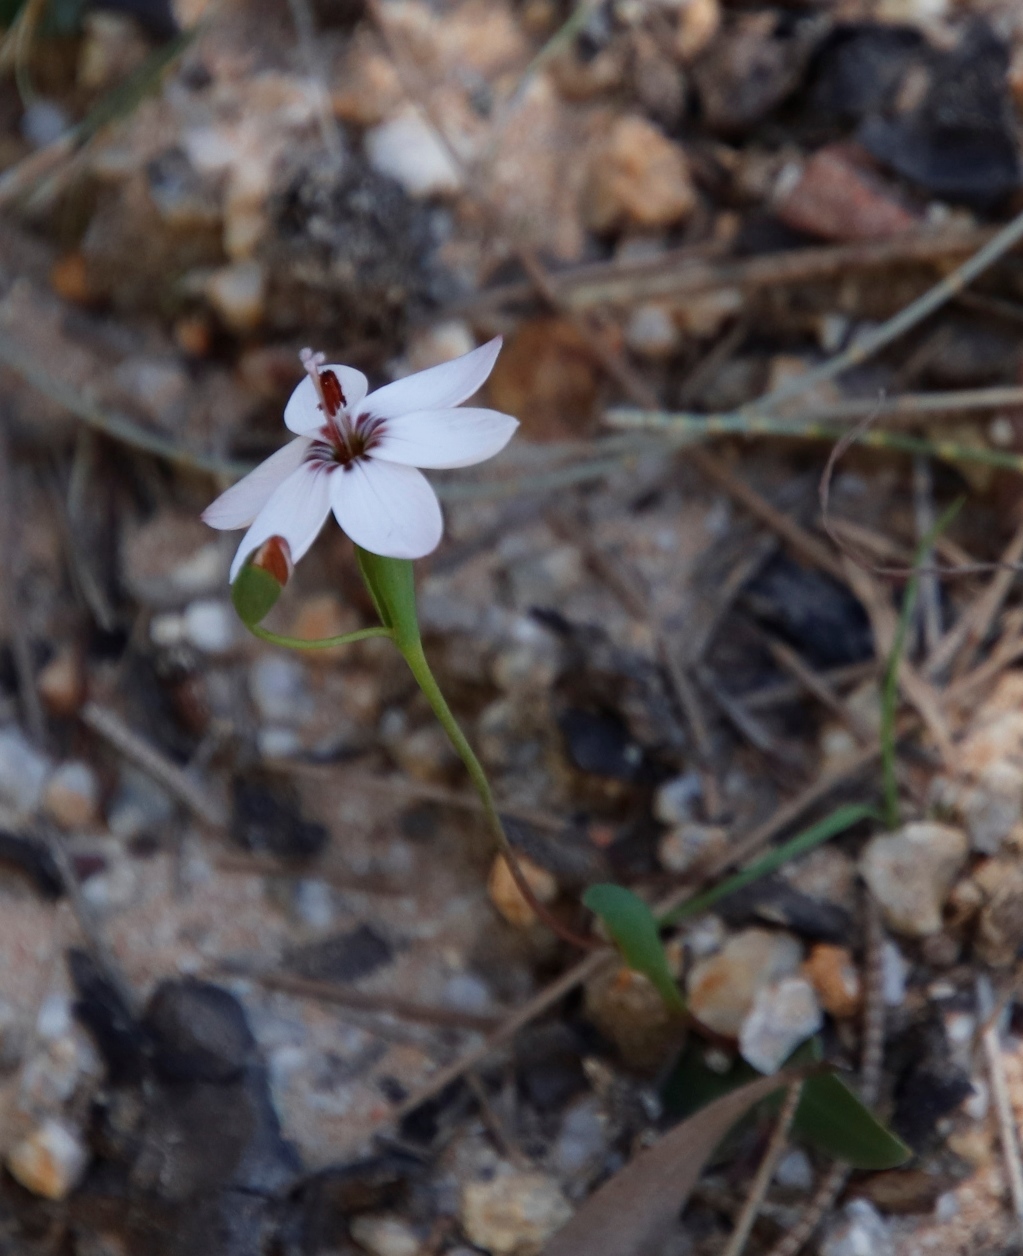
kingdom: Plantae
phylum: Tracheophyta
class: Liliopsida
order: Asparagales
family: Iridaceae
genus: Geissorhiza
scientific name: Geissorhiza ovata
